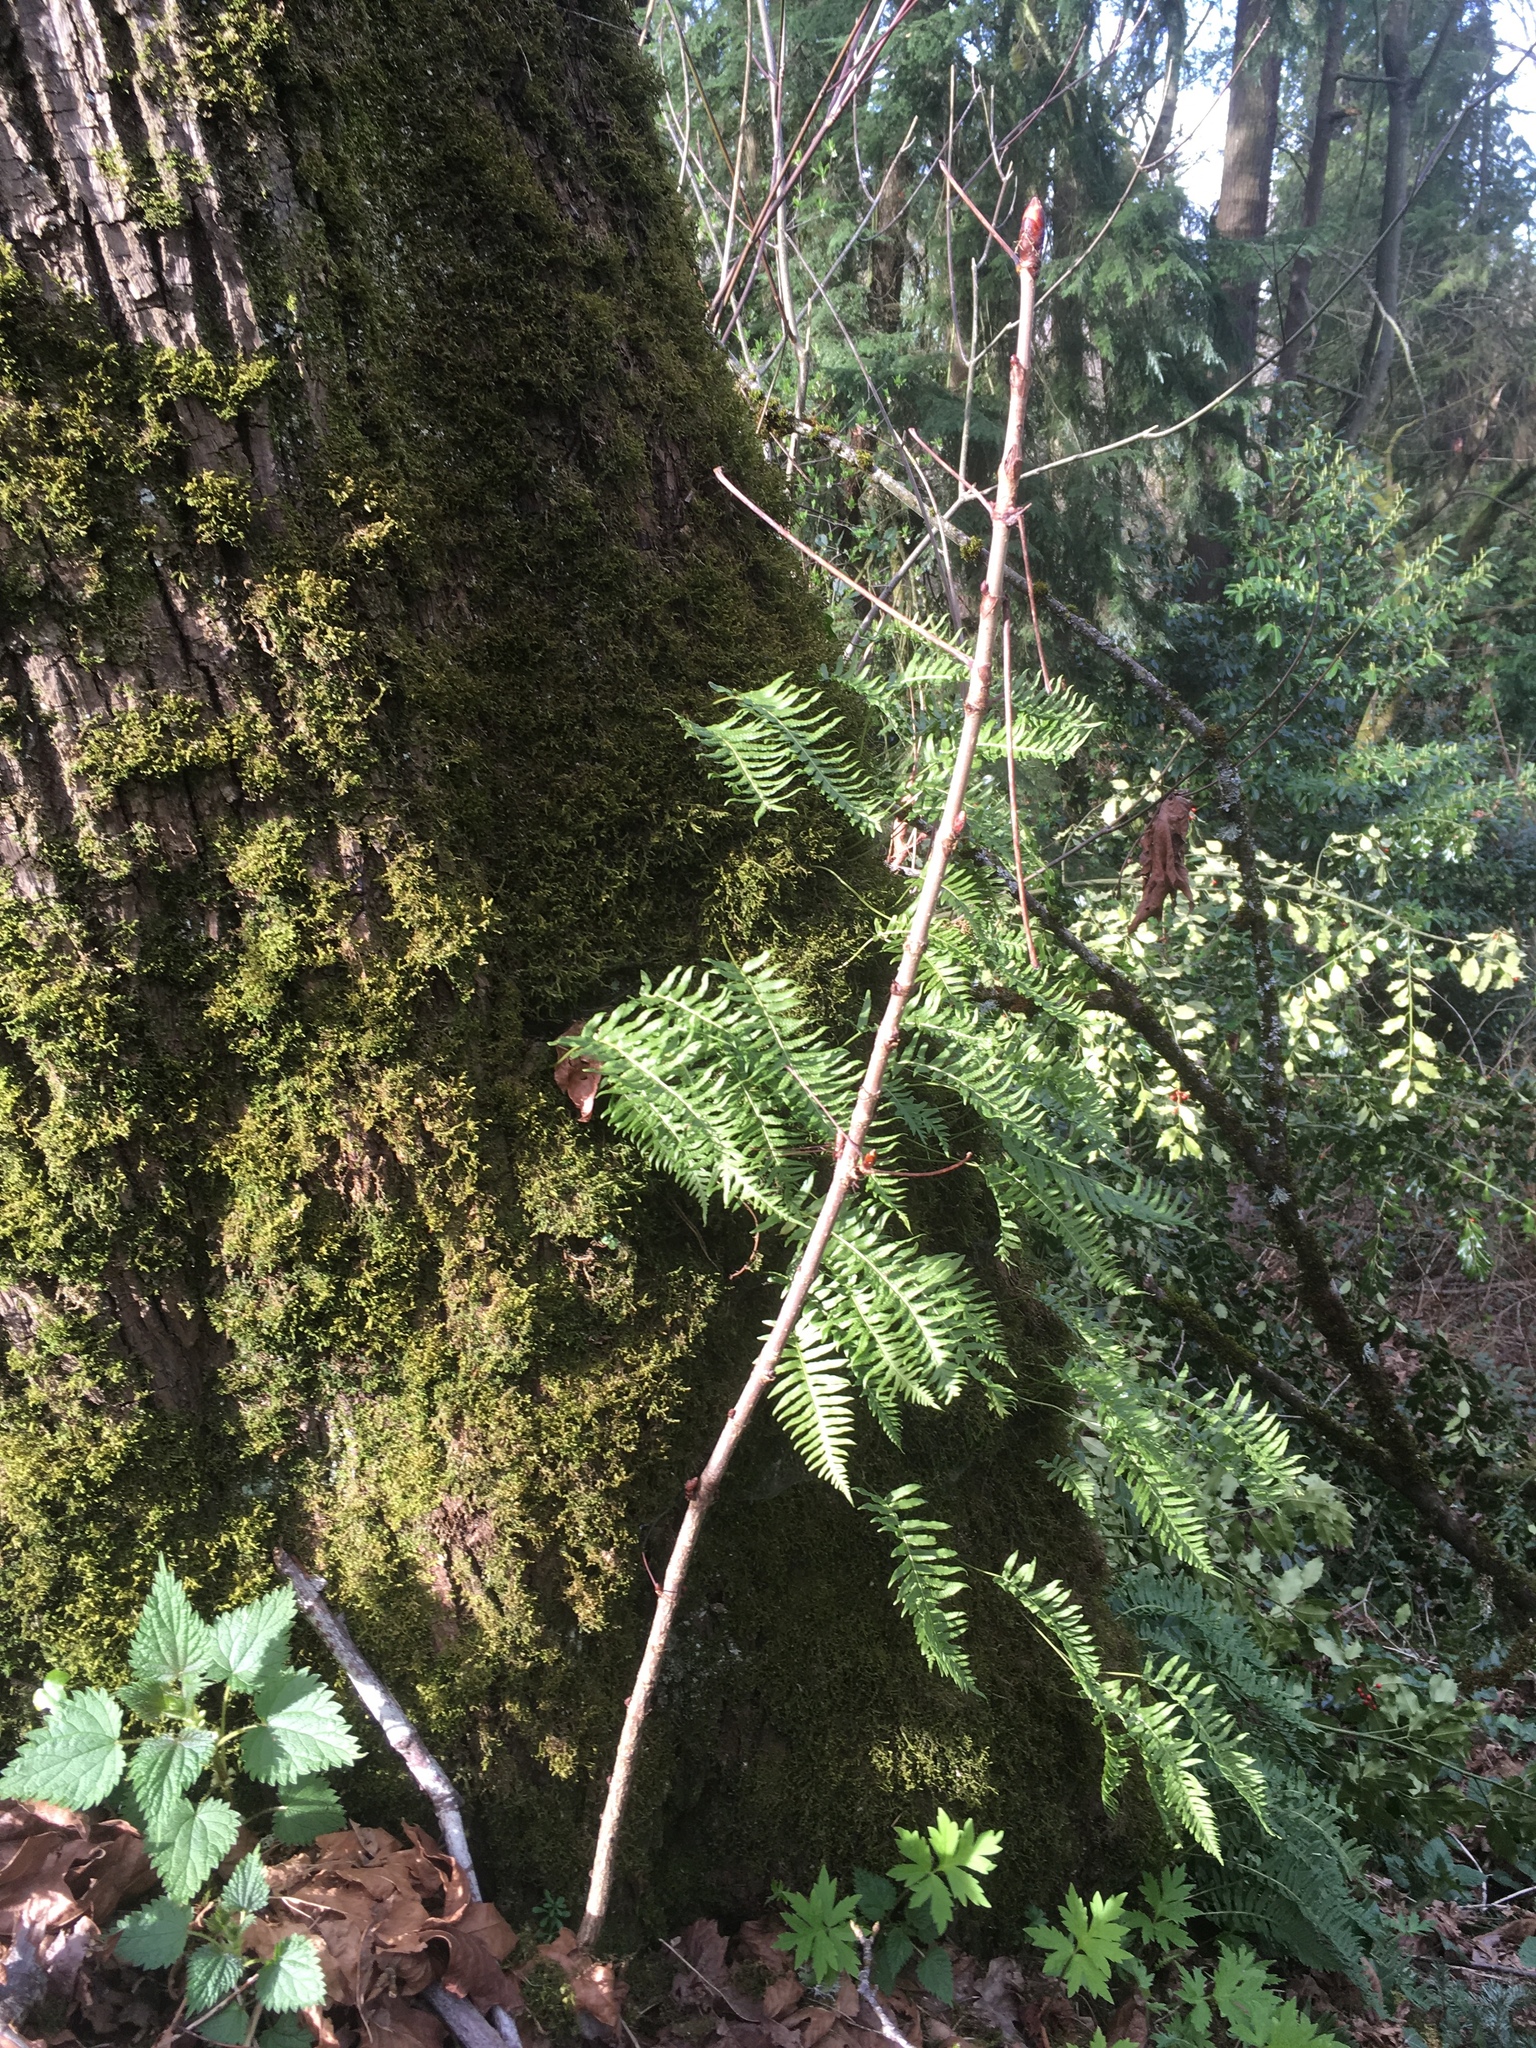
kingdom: Plantae
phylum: Tracheophyta
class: Polypodiopsida
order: Polypodiales
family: Polypodiaceae
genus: Polypodium
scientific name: Polypodium glycyrrhiza
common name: Licorice fern
